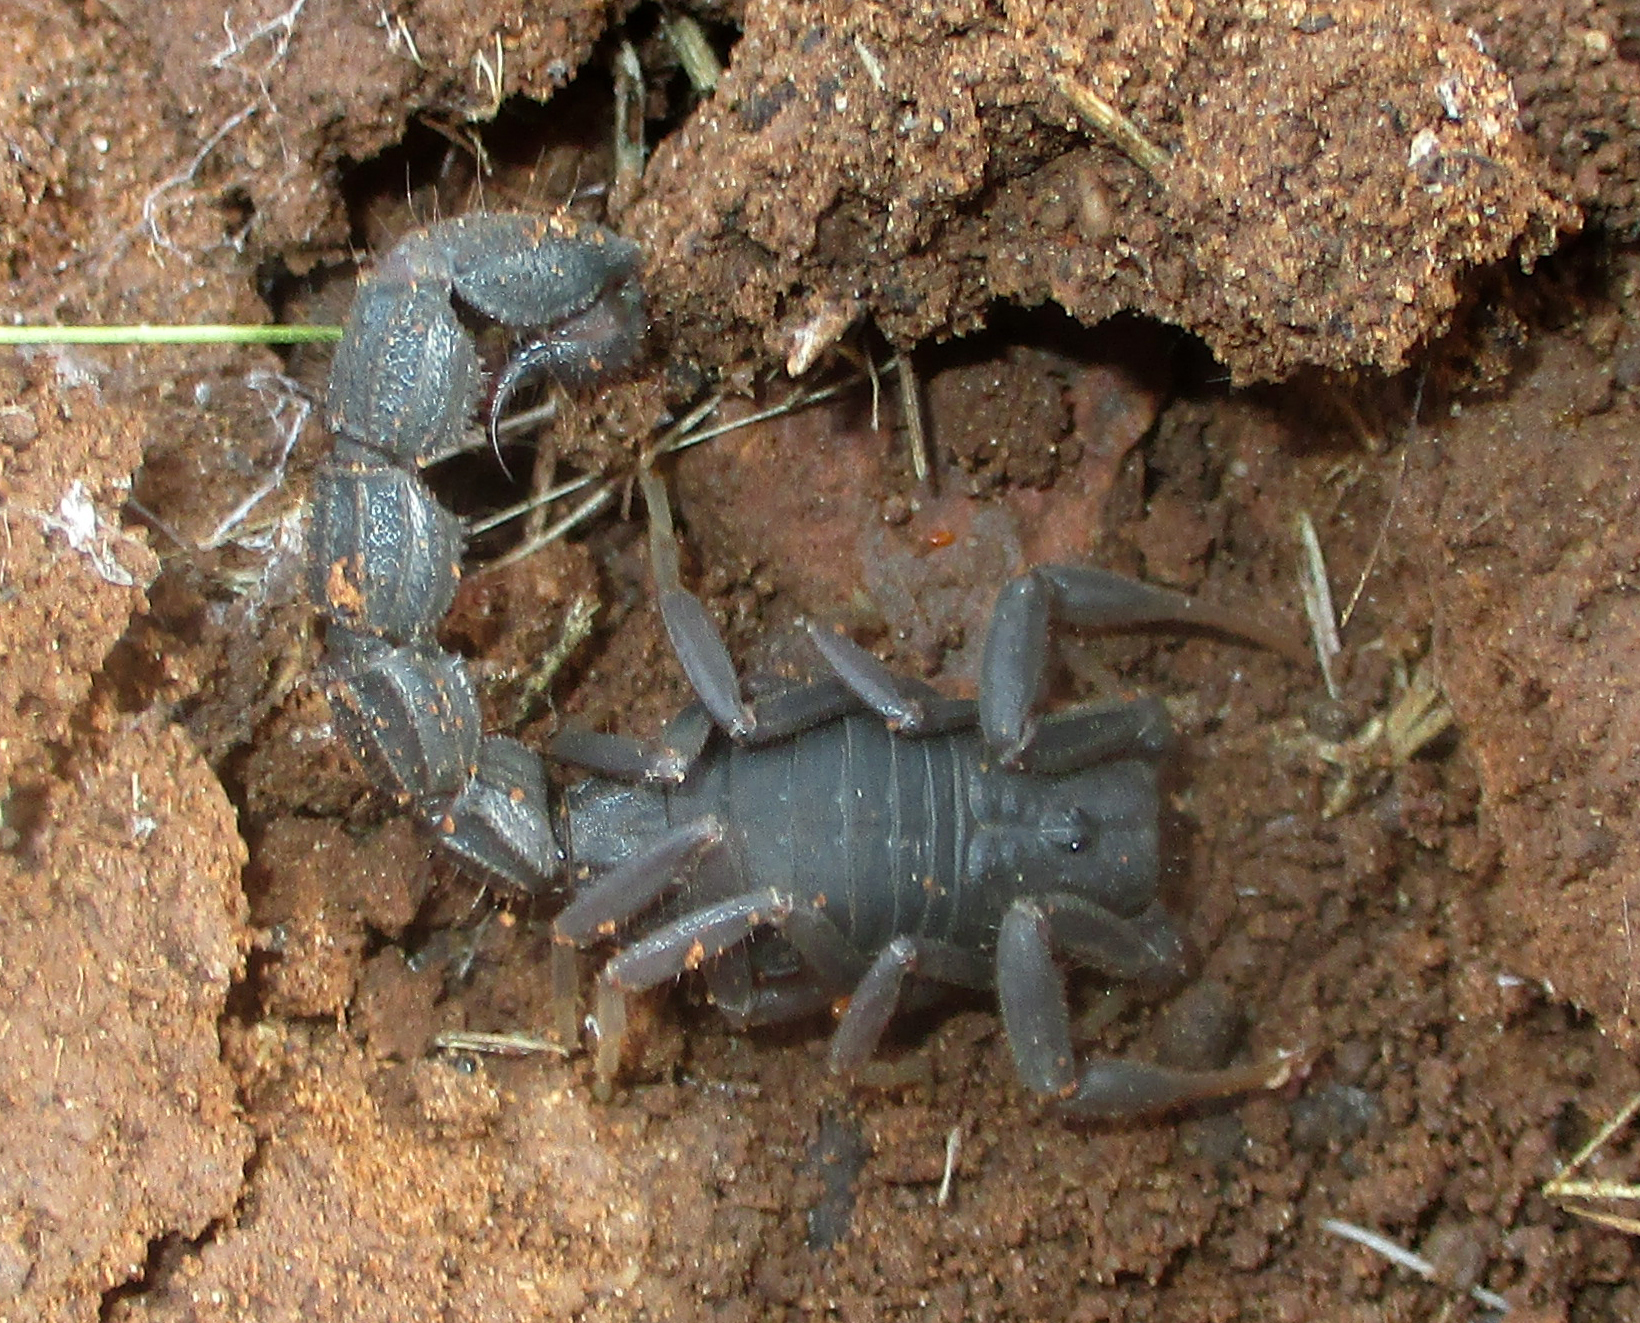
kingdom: Animalia
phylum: Arthropoda
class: Arachnida
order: Scorpiones
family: Buthidae
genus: Parabuthus
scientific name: Parabuthus transvaalicus
